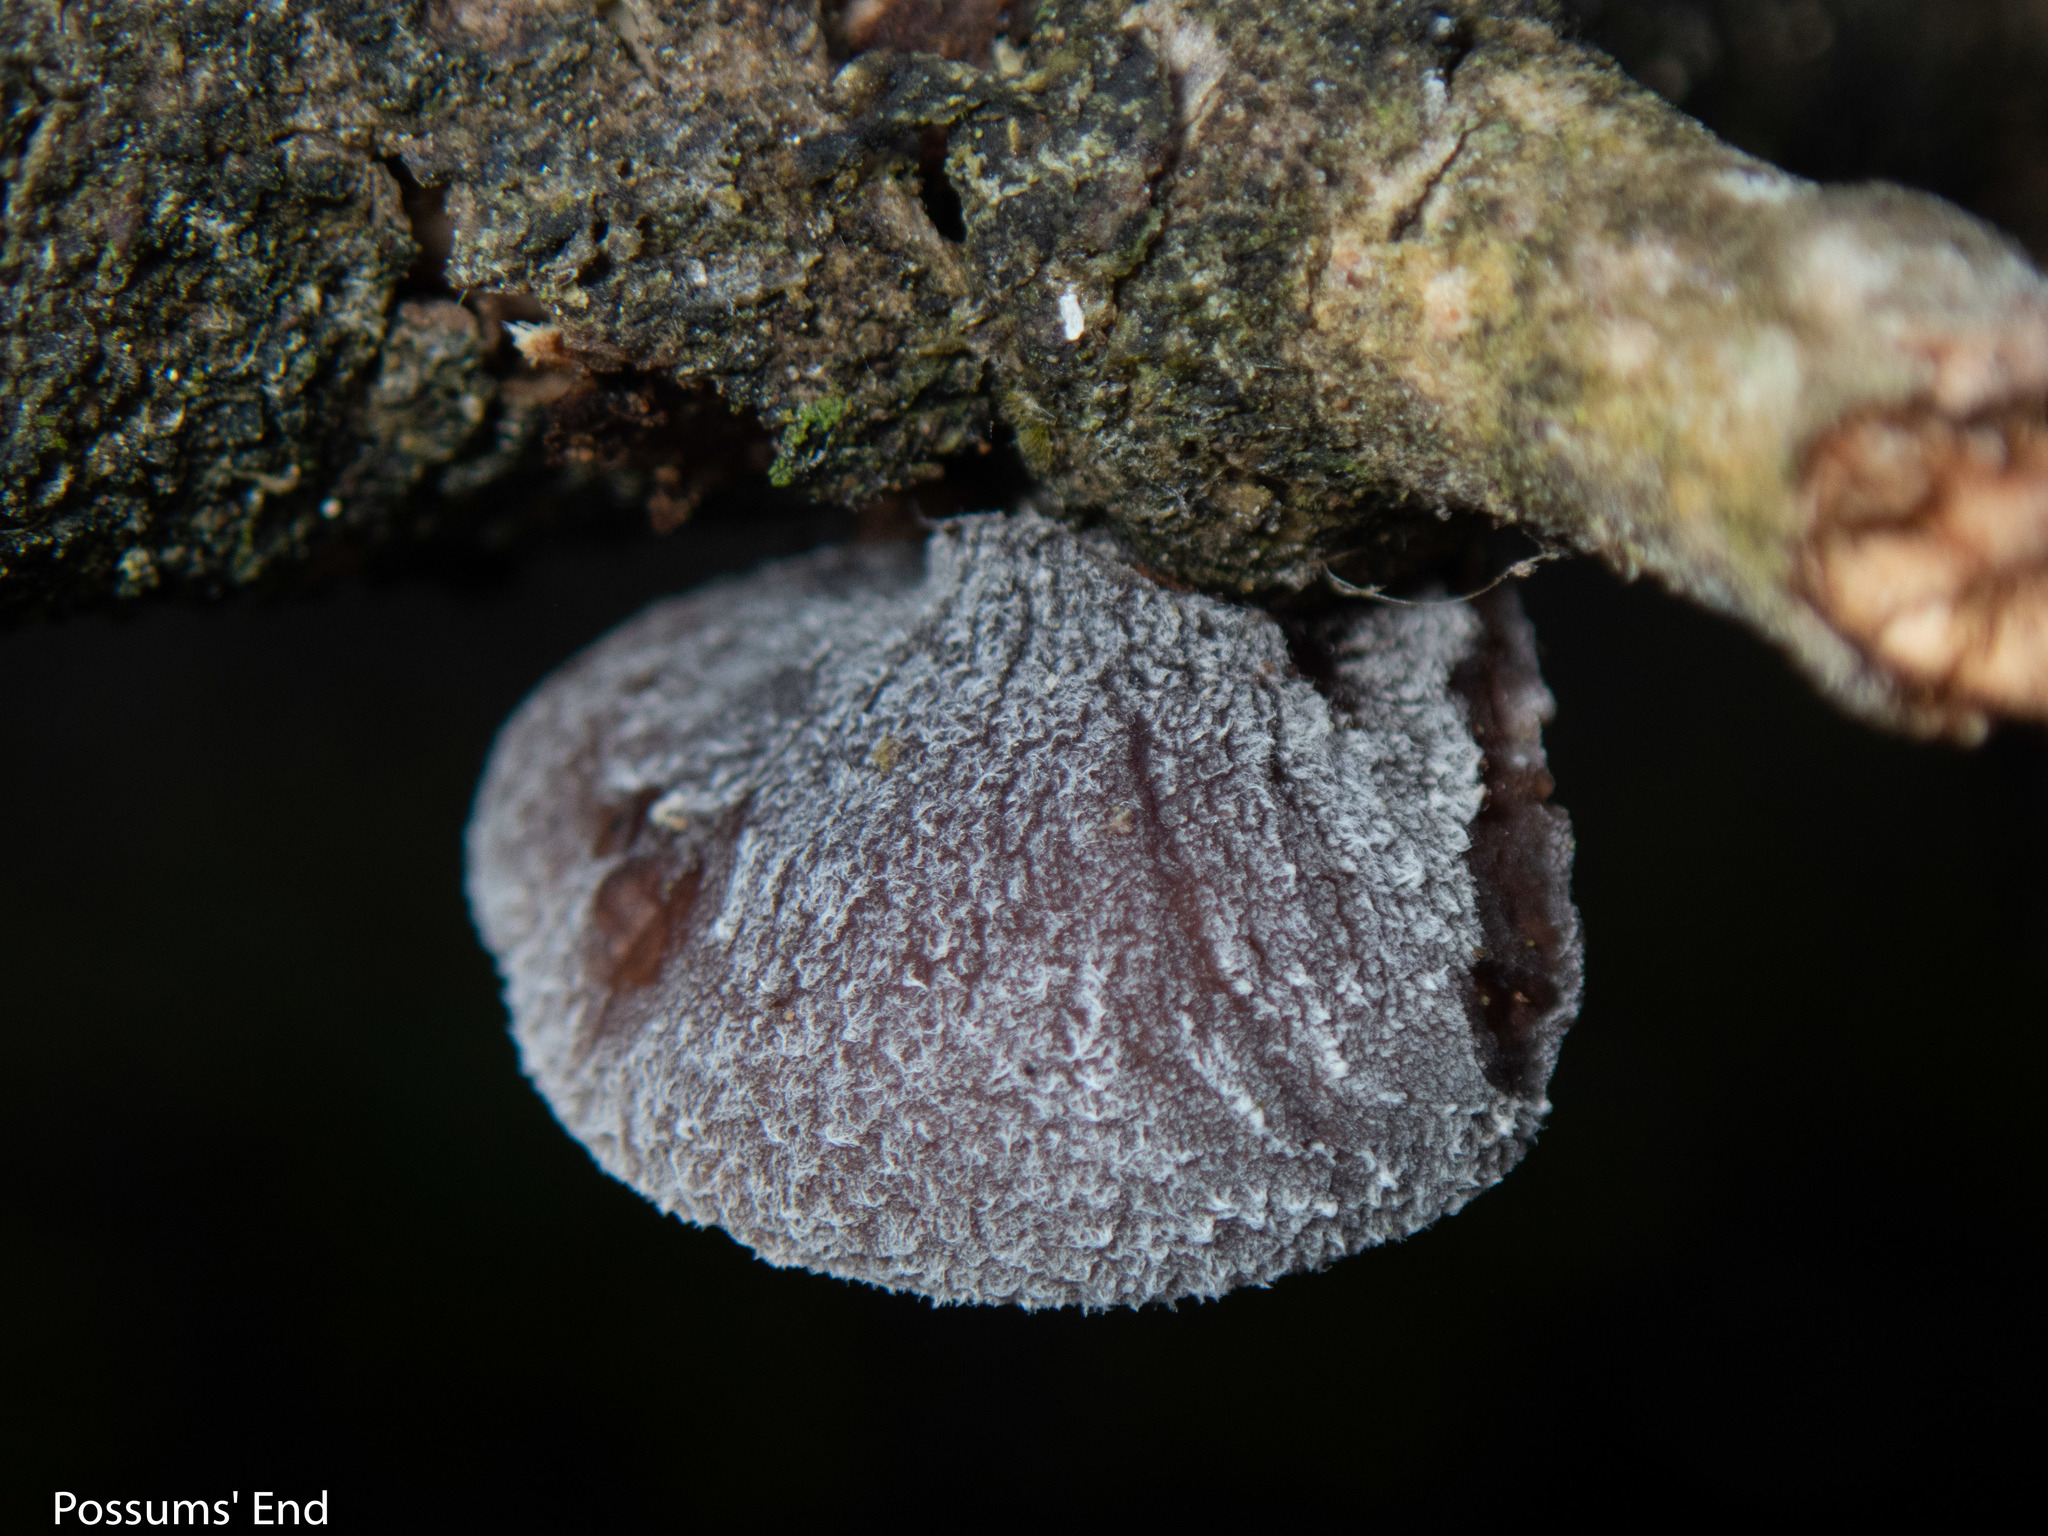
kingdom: Fungi
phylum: Basidiomycota
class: Agaricomycetes
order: Agaricales
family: Pleurotaceae
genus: Resupinatus
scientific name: Resupinatus vinosolividus
